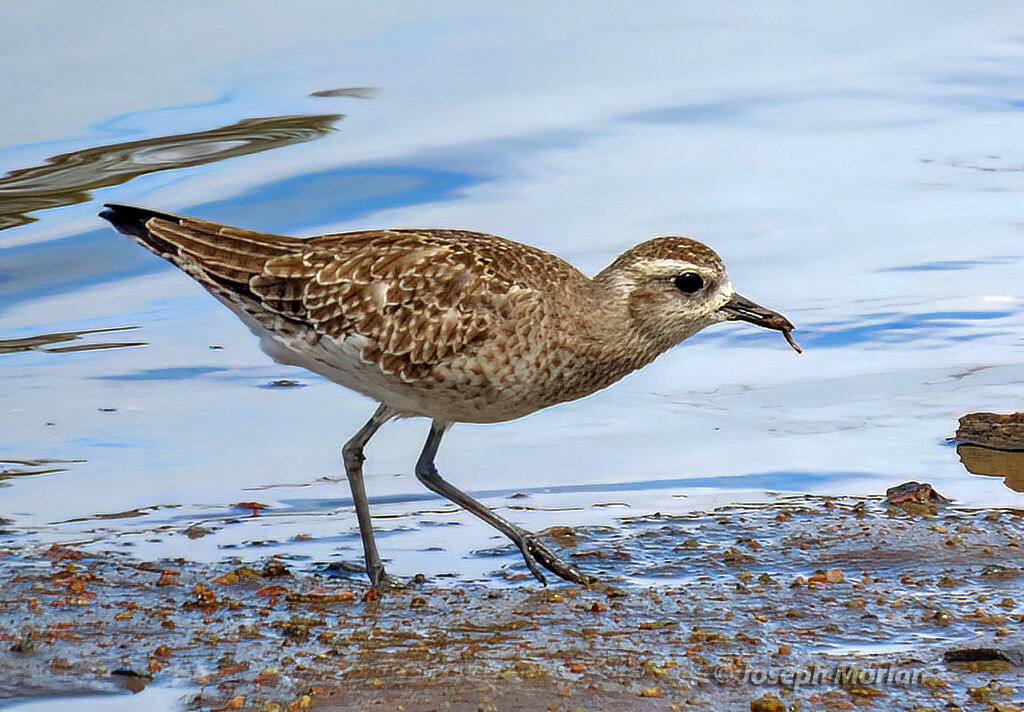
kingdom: Animalia
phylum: Chordata
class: Aves
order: Charadriiformes
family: Charadriidae
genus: Pluvialis
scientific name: Pluvialis dominica
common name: American golden plover
